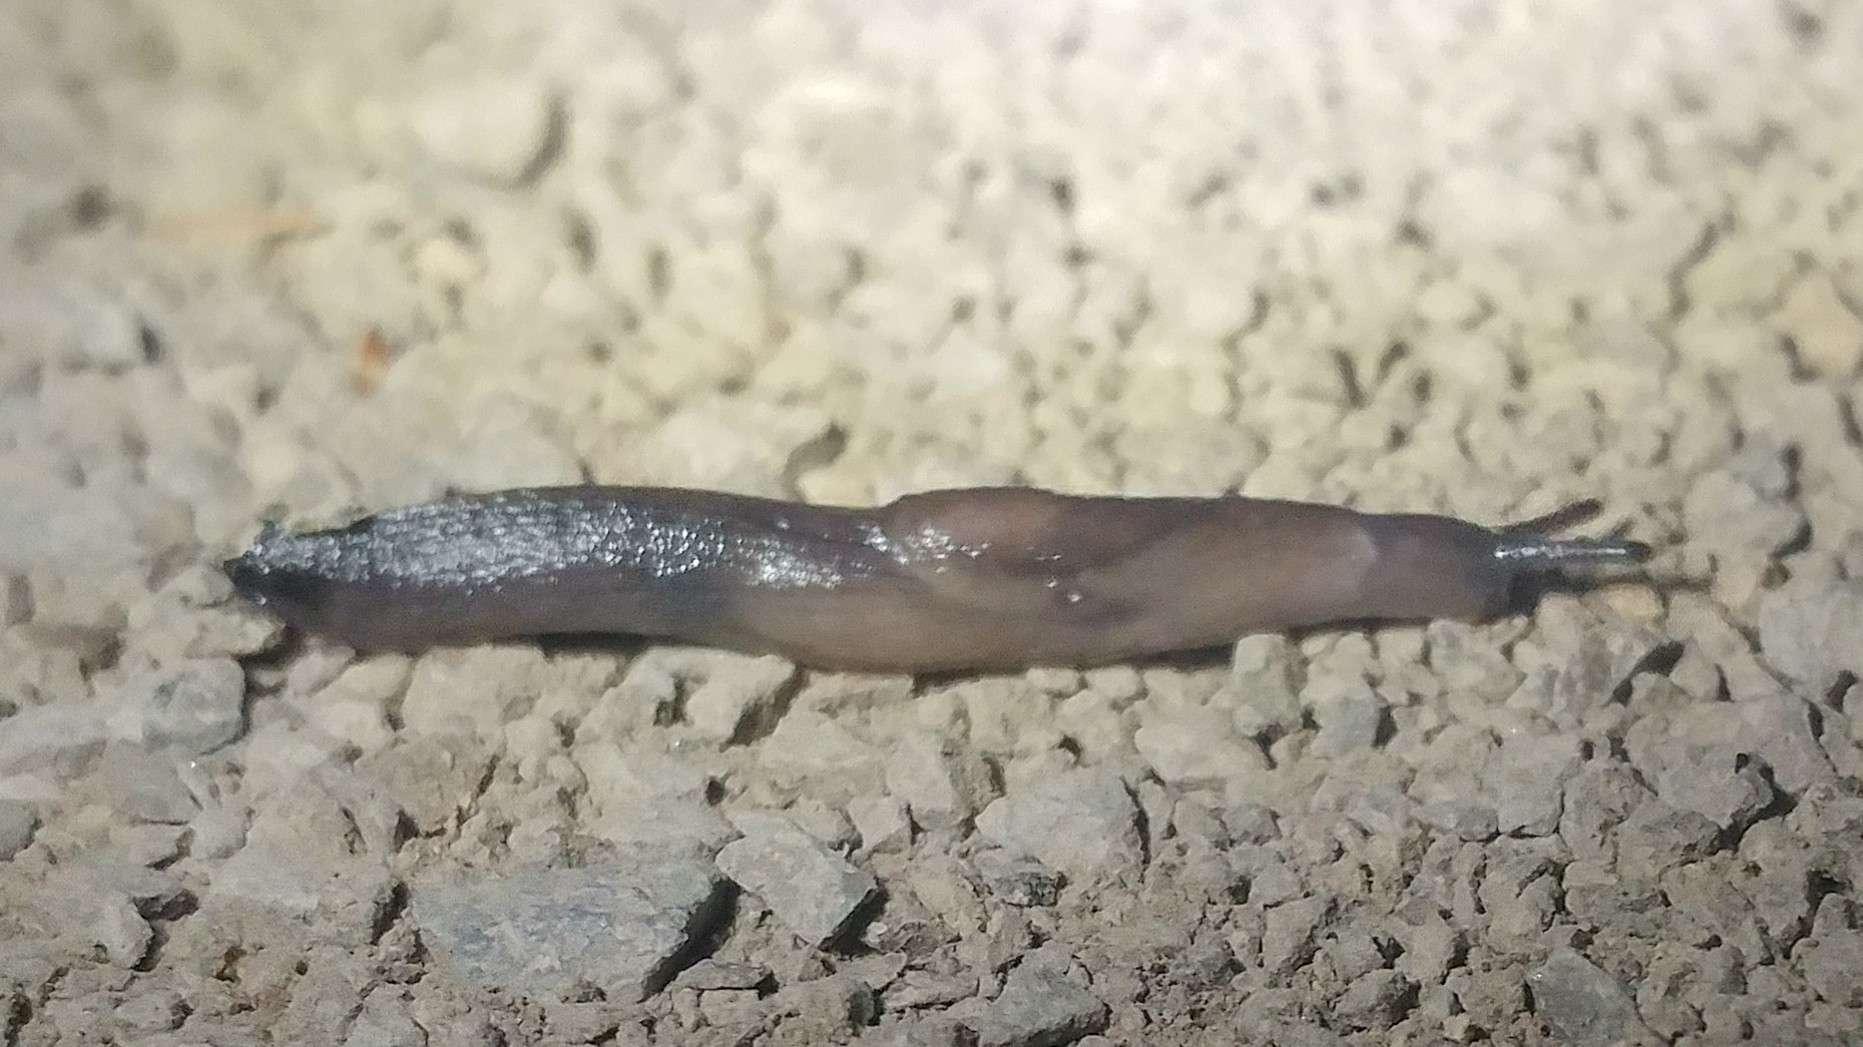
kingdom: Animalia
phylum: Mollusca
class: Gastropoda
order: Stylommatophora
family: Milacidae
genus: Milax
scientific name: Milax gagates
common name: Greenhouse slug
